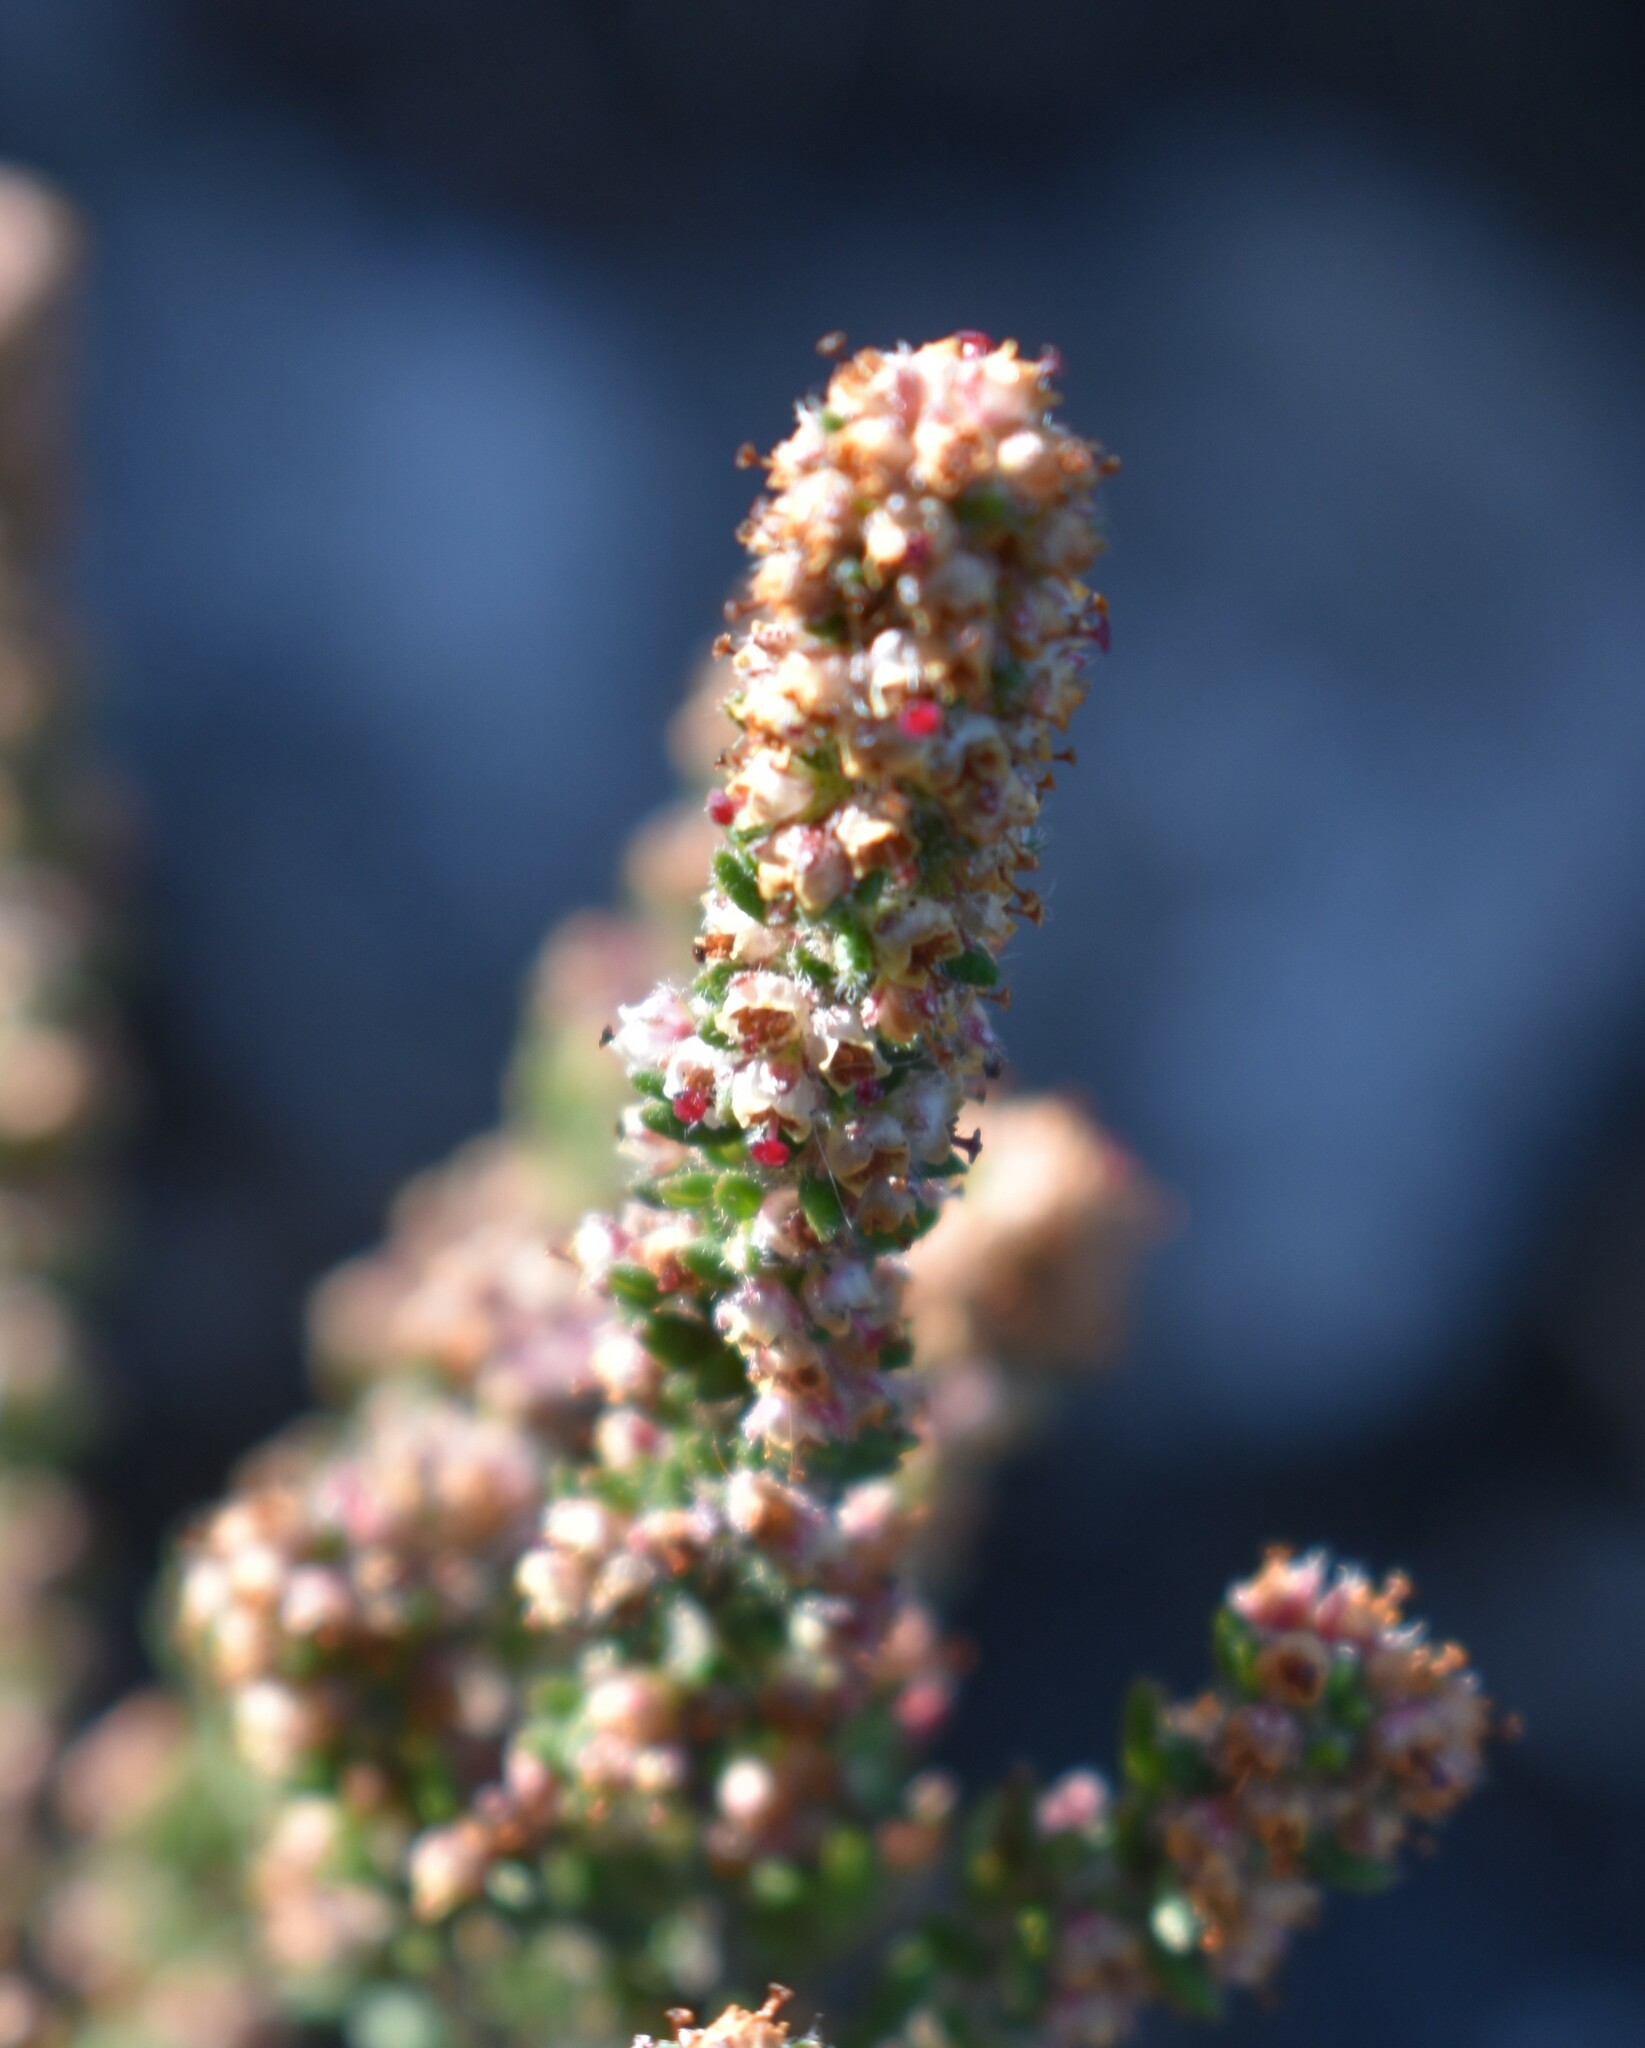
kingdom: Plantae
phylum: Tracheophyta
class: Magnoliopsida
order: Ericales
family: Ericaceae
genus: Erica
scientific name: Erica cordata
